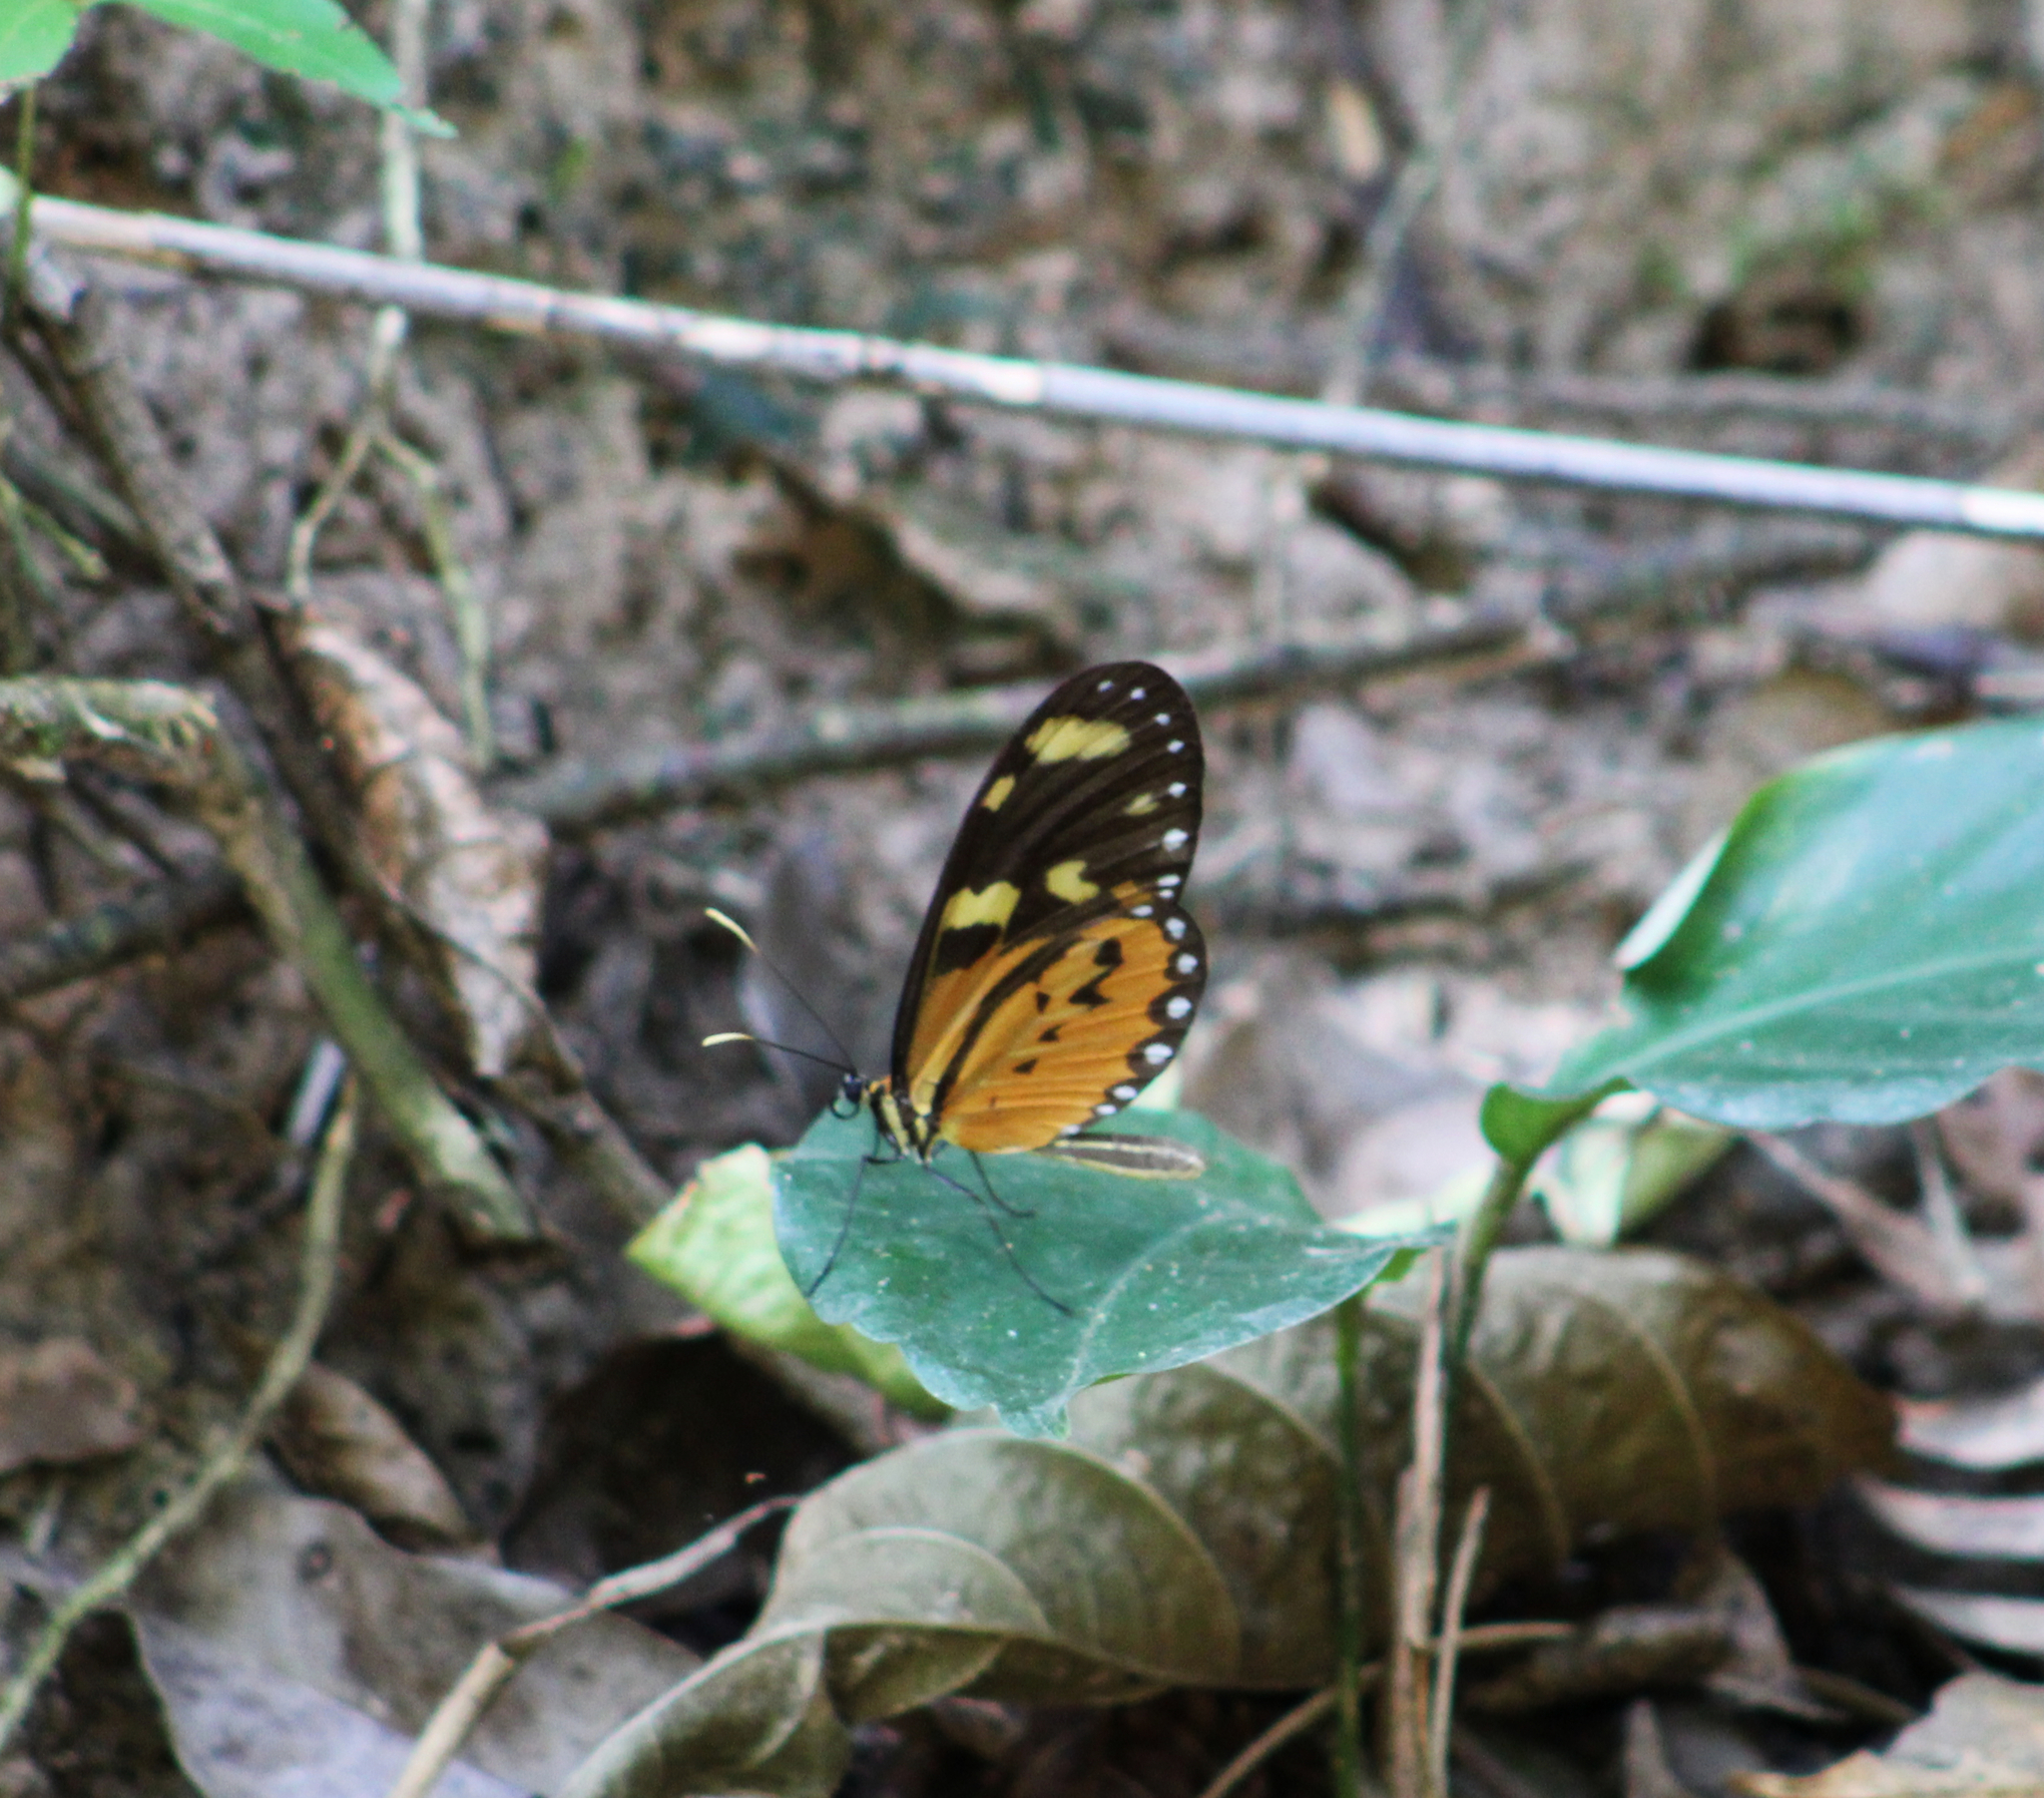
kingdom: Animalia
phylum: Arthropoda
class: Insecta
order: Lepidoptera
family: Nymphalidae
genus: Mechanitis
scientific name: Mechanitis lysimnia
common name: Lysimnia tigerwing
